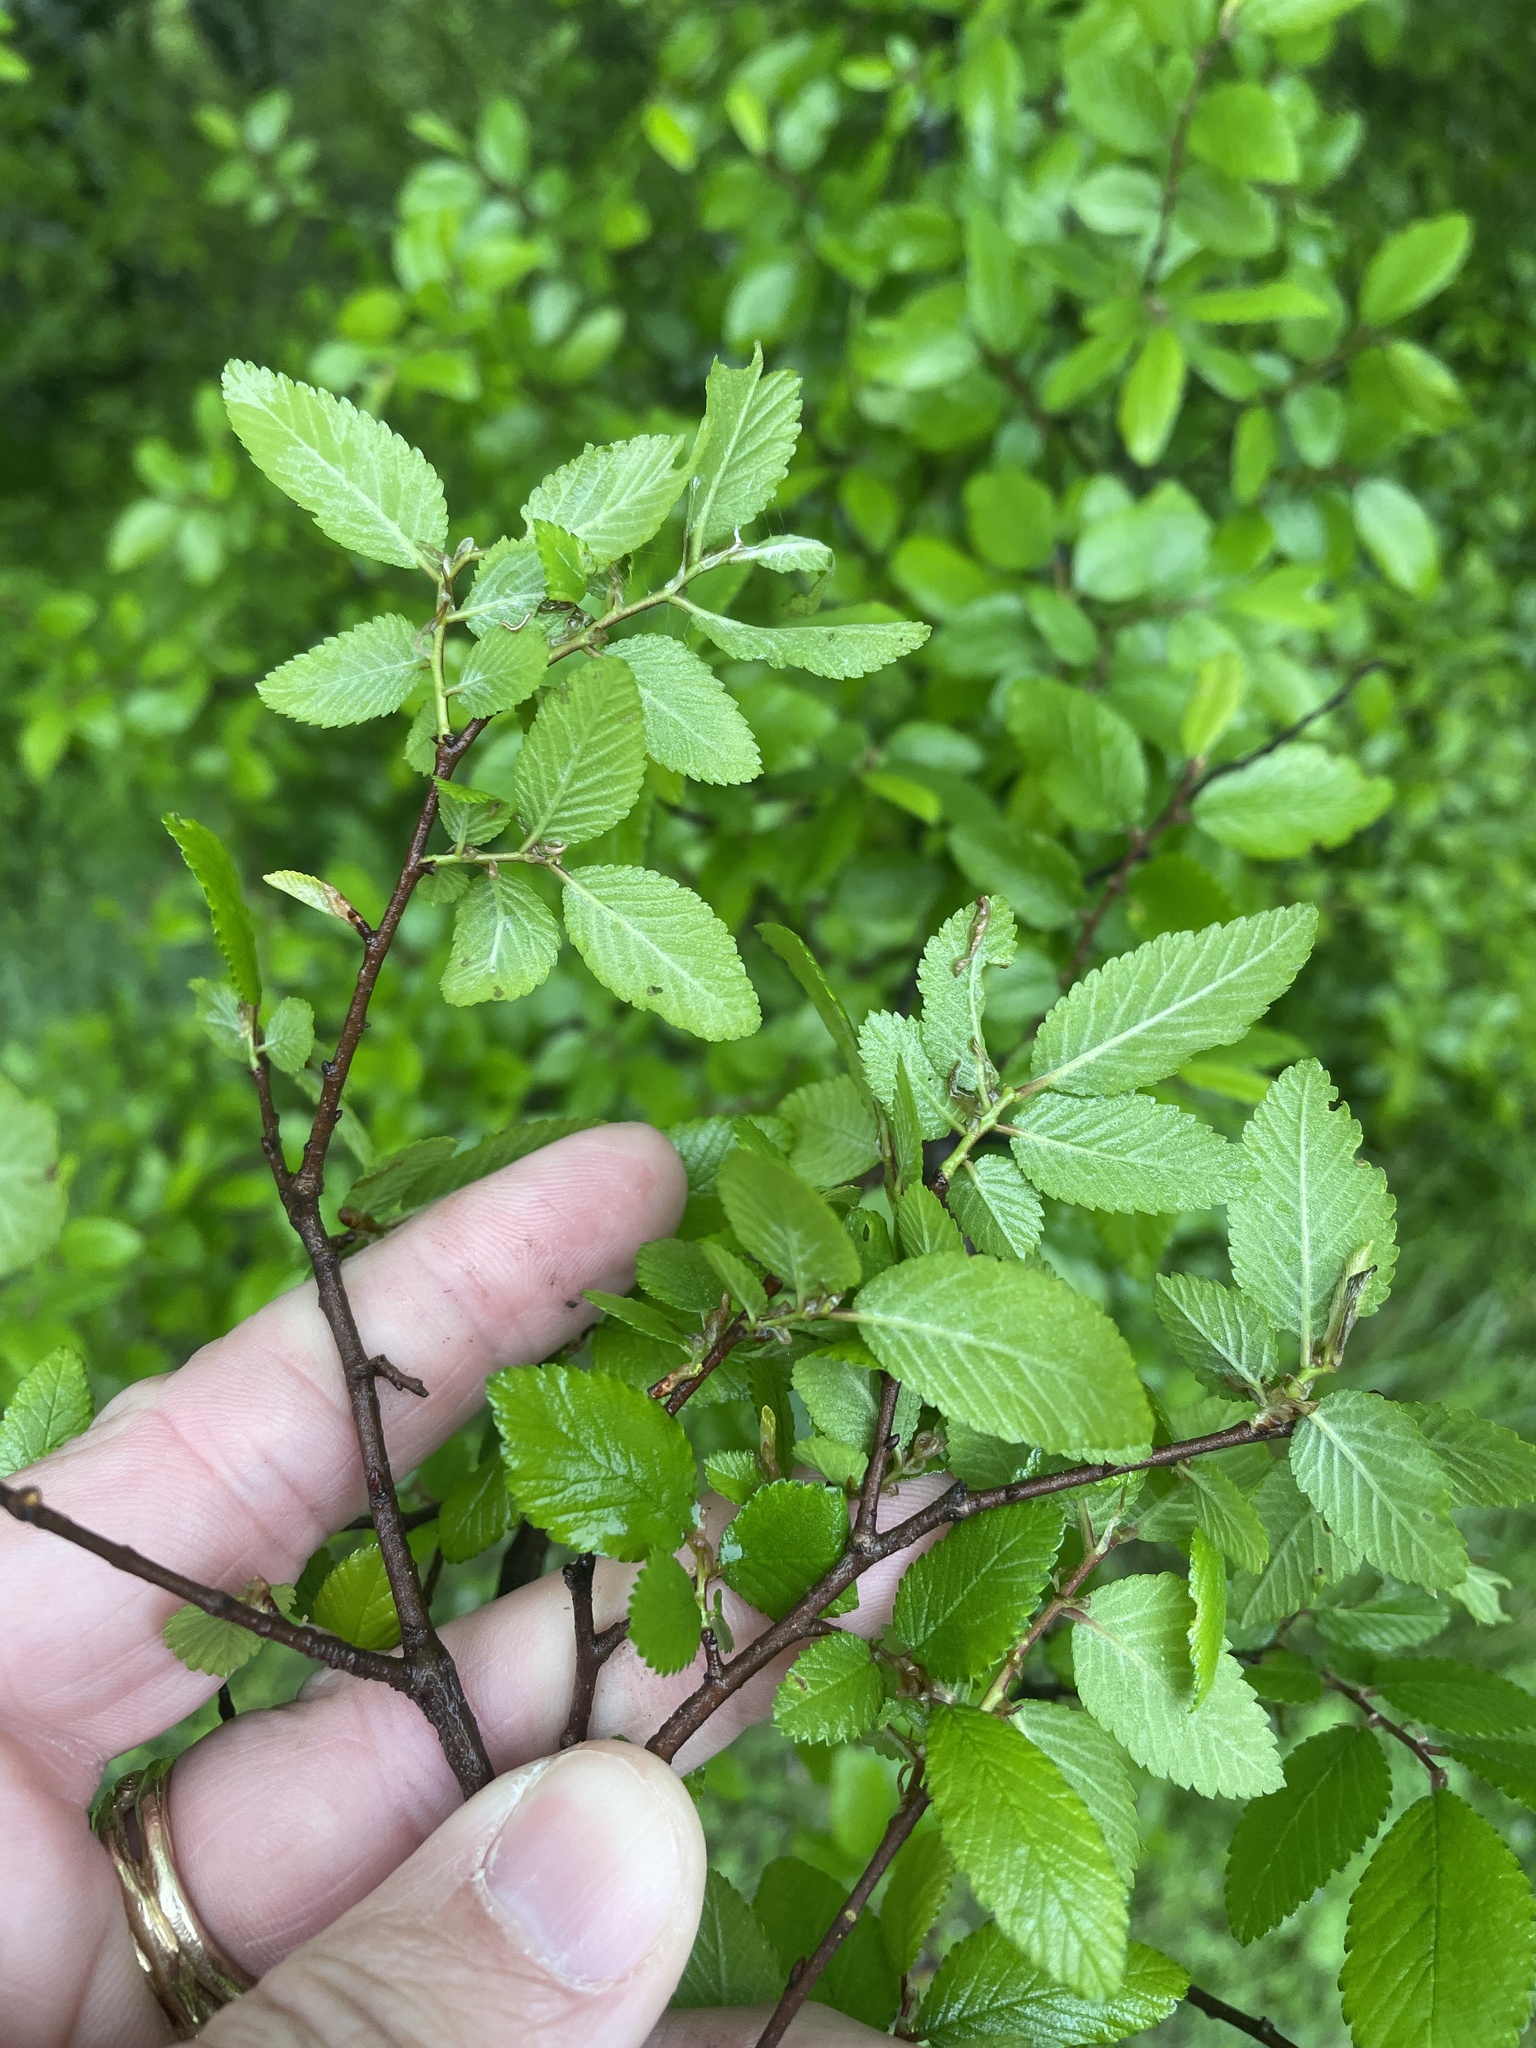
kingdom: Plantae
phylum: Tracheophyta
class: Magnoliopsida
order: Rosales
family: Ulmaceae
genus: Ulmus
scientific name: Ulmus crassifolia
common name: Basket elm
